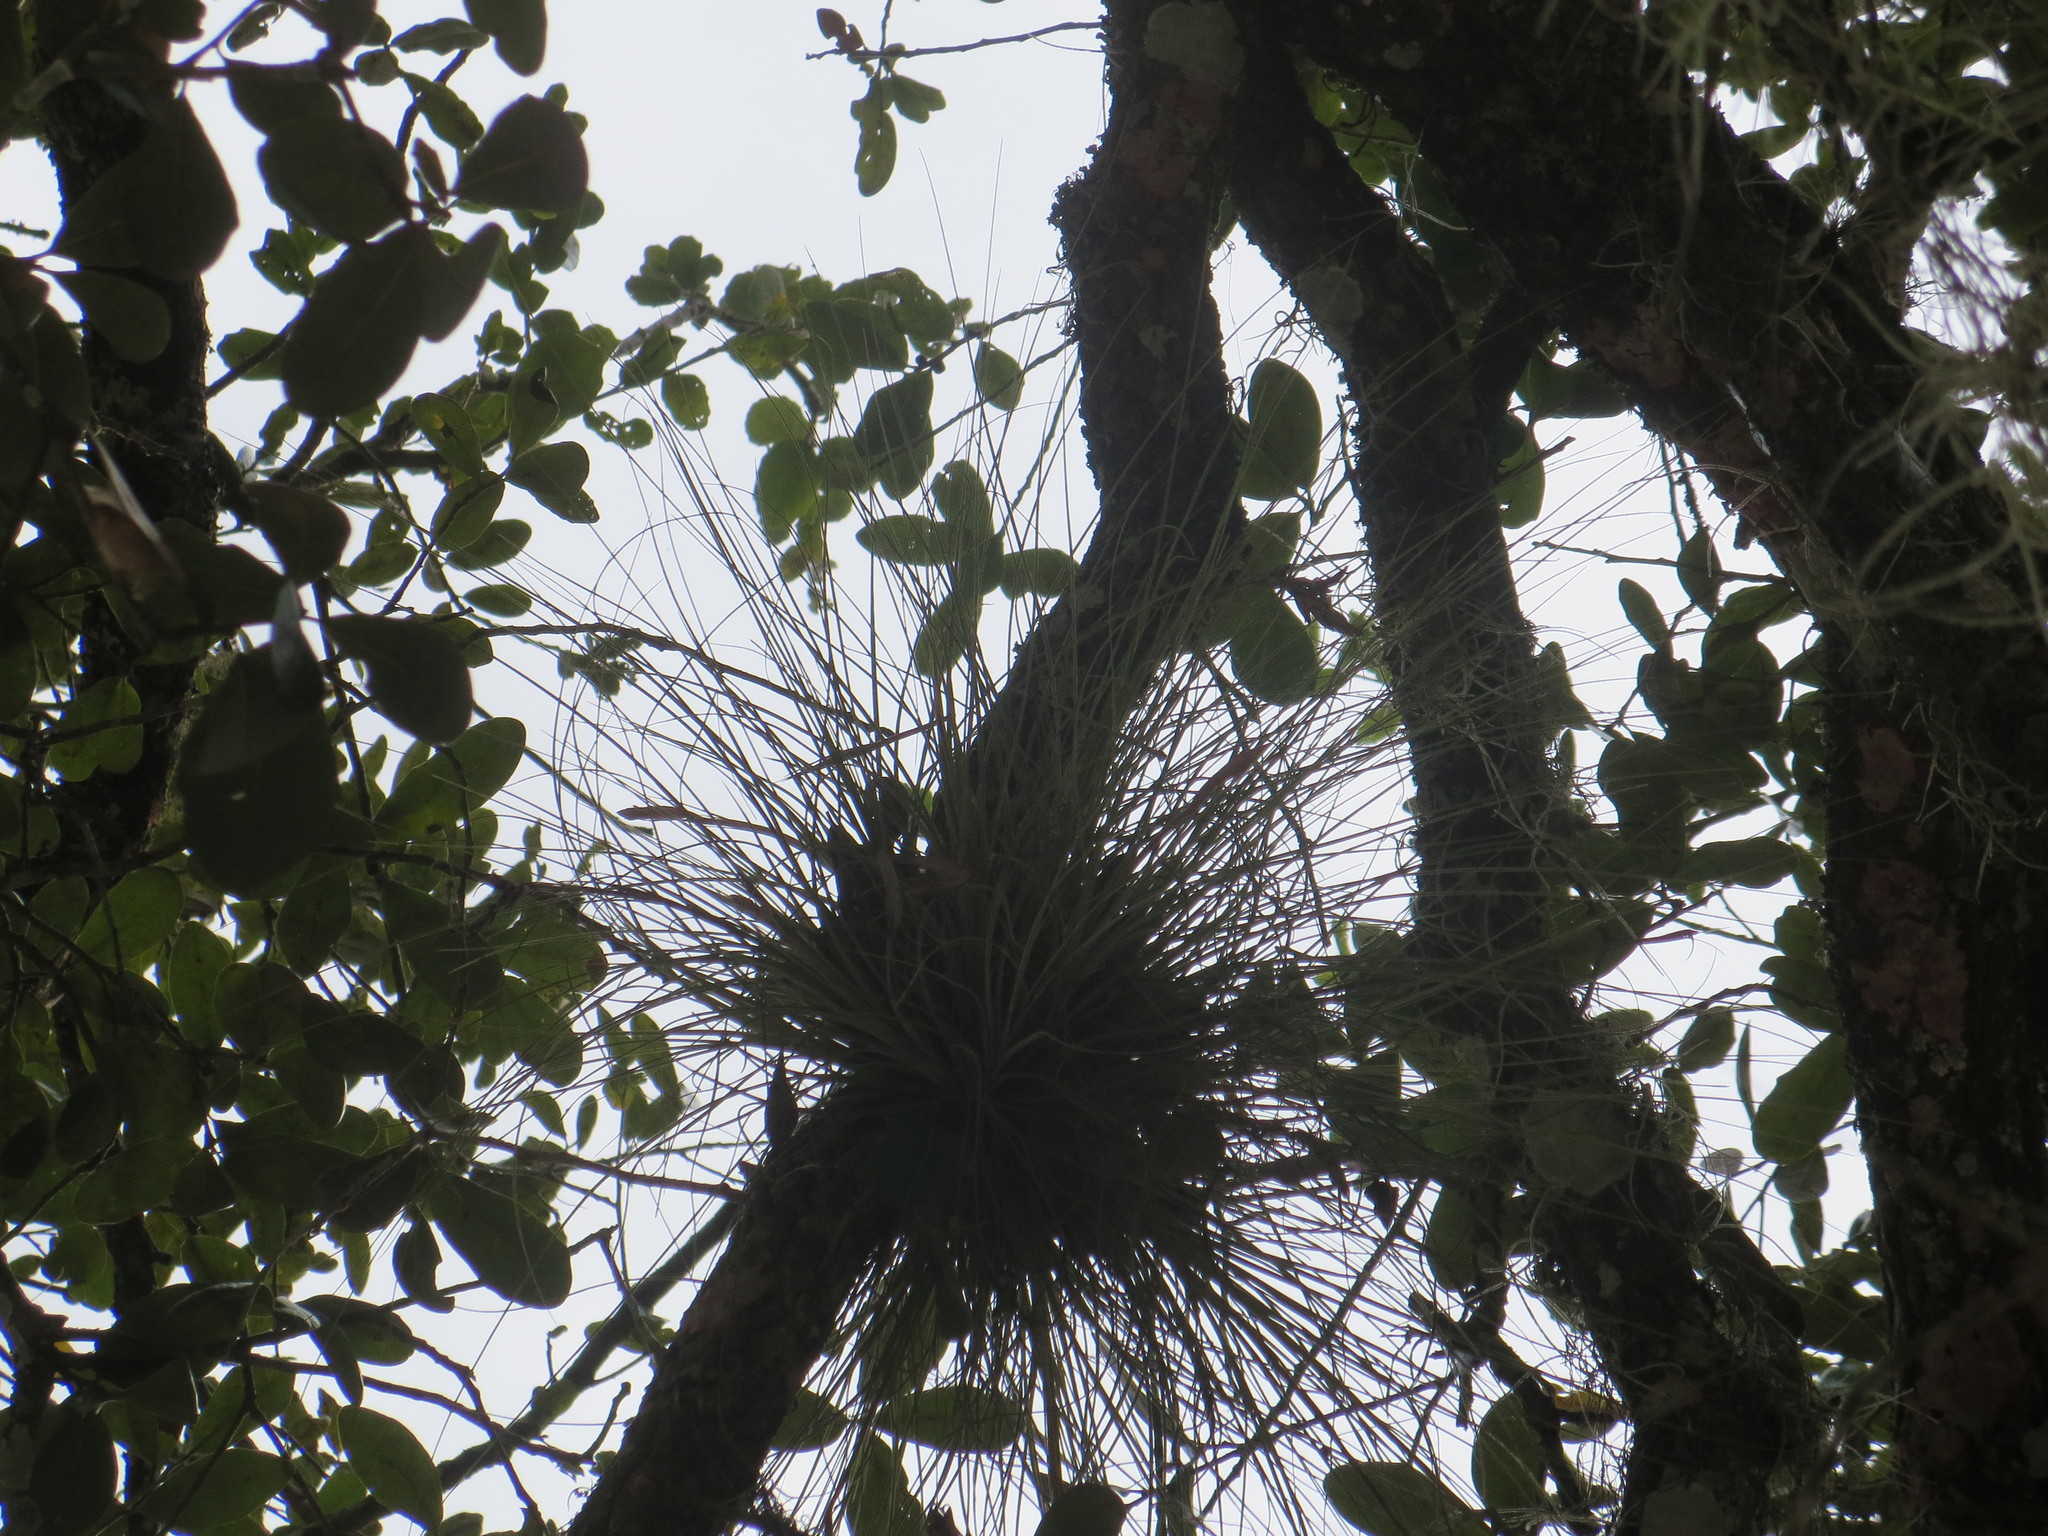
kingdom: Plantae
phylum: Tracheophyta
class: Liliopsida
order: Poales
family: Bromeliaceae
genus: Tillandsia
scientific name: Tillandsia bartramii
